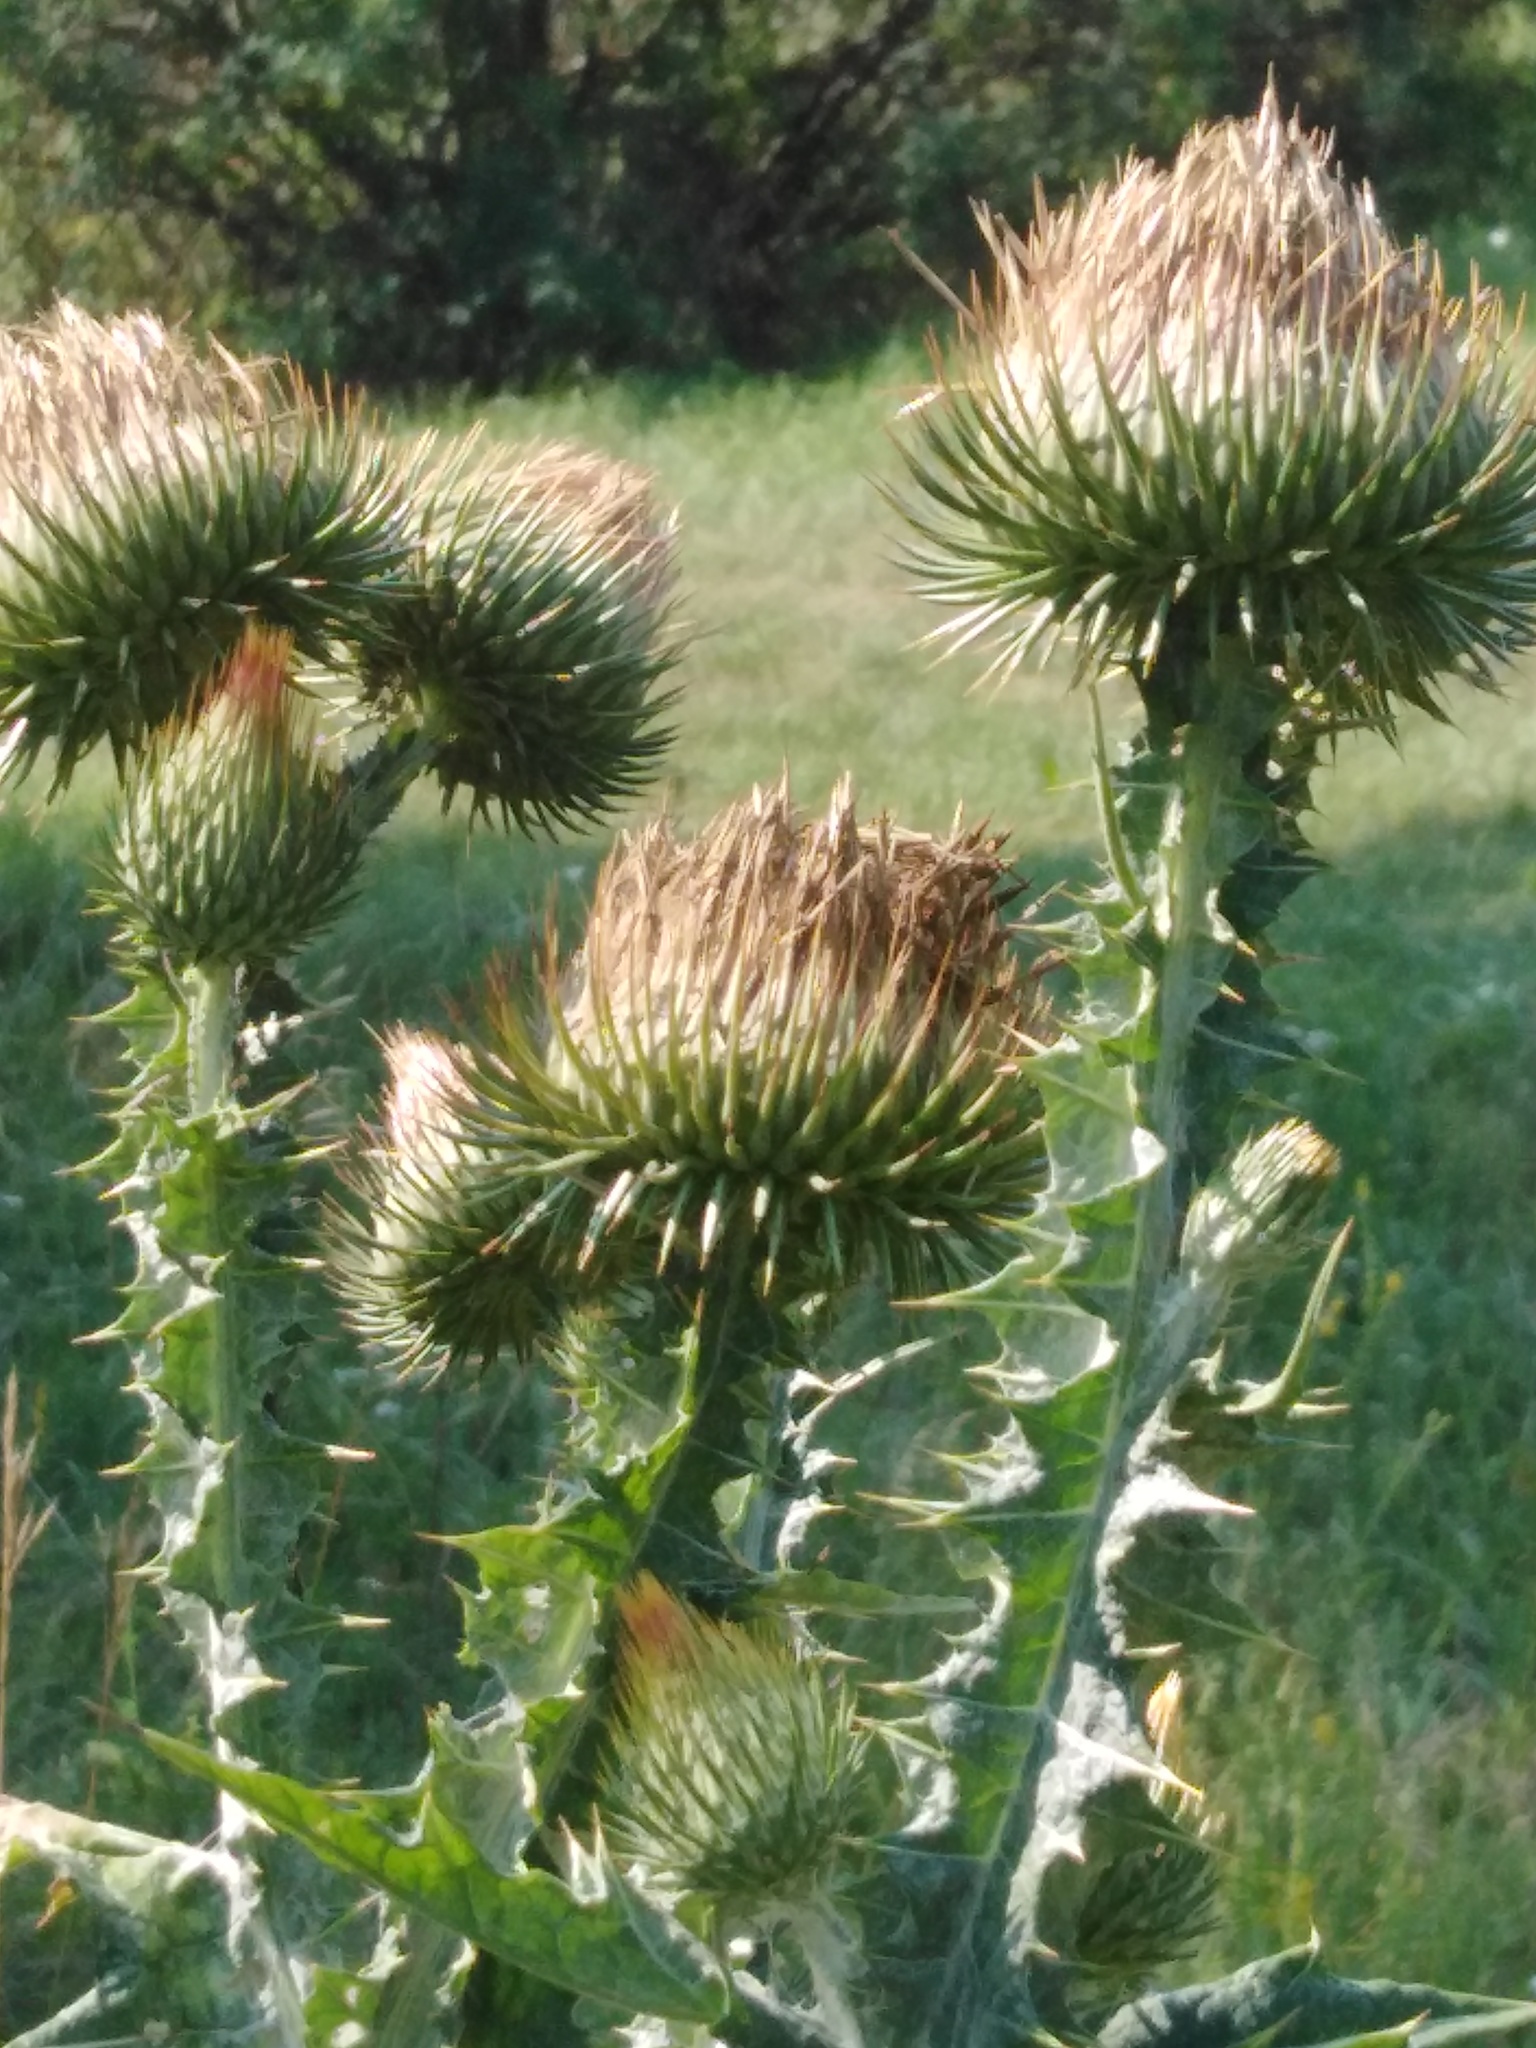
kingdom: Plantae
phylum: Tracheophyta
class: Magnoliopsida
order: Asterales
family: Asteraceae
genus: Onopordum
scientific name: Onopordum acanthium
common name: Scotch thistle
